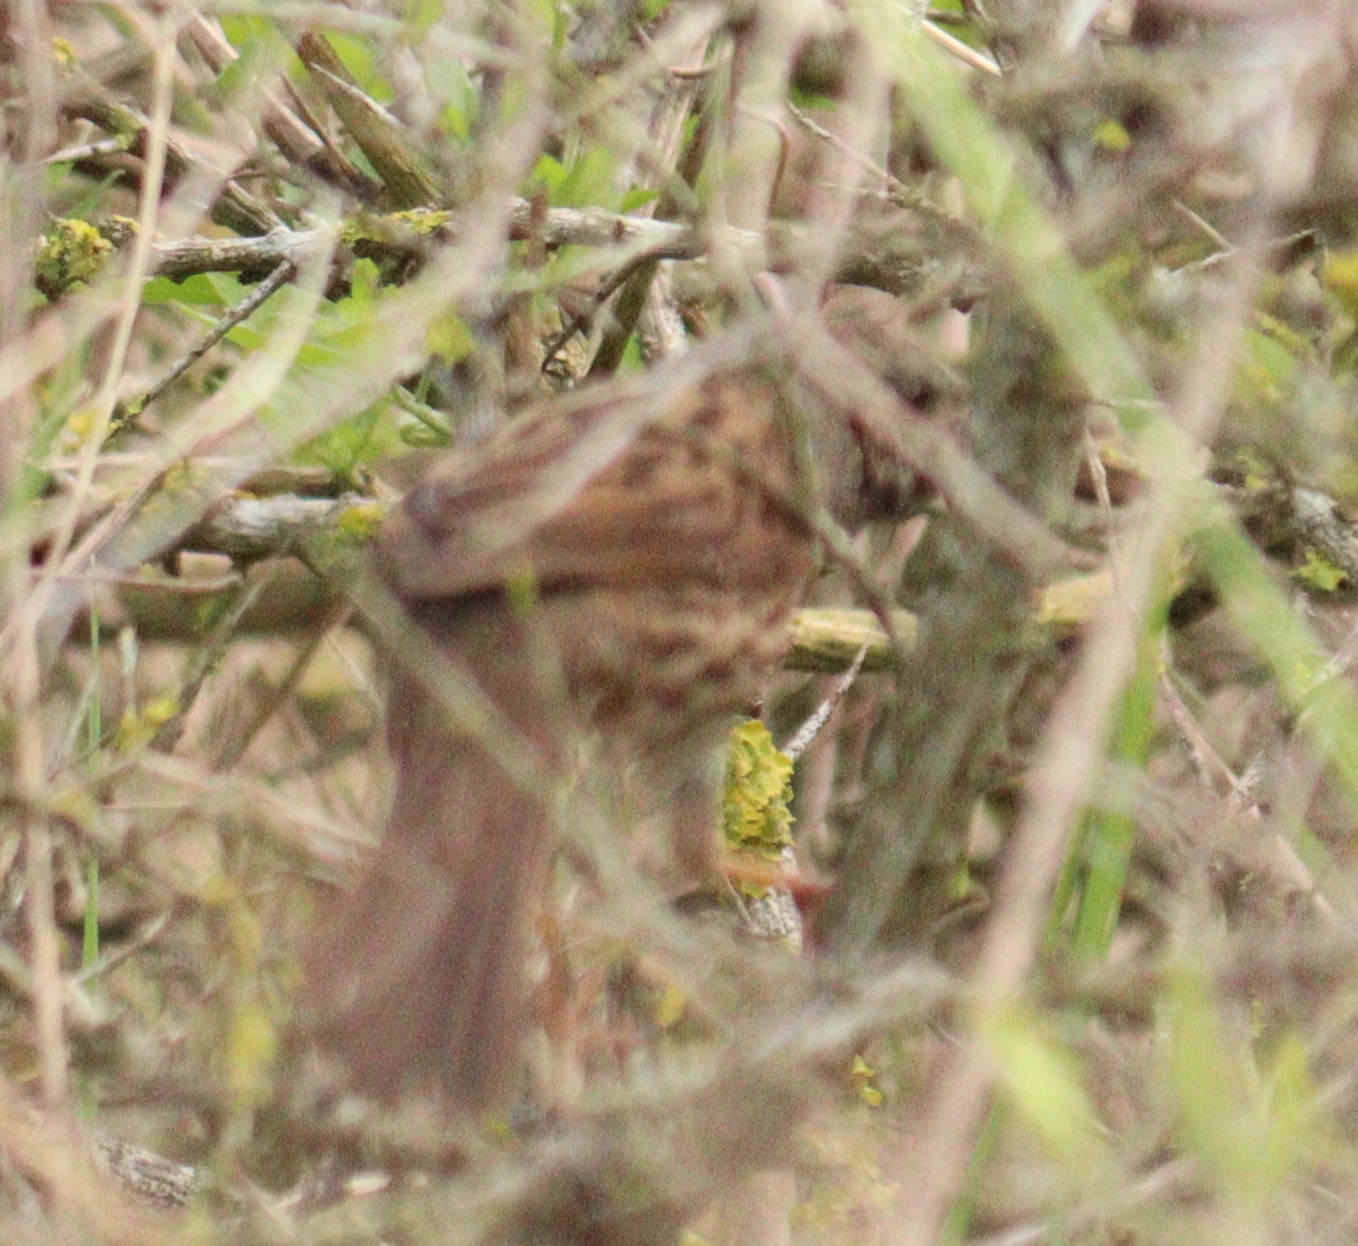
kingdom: Animalia
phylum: Chordata
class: Aves
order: Passeriformes
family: Prunellidae
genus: Prunella
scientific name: Prunella modularis
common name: Dunnock
